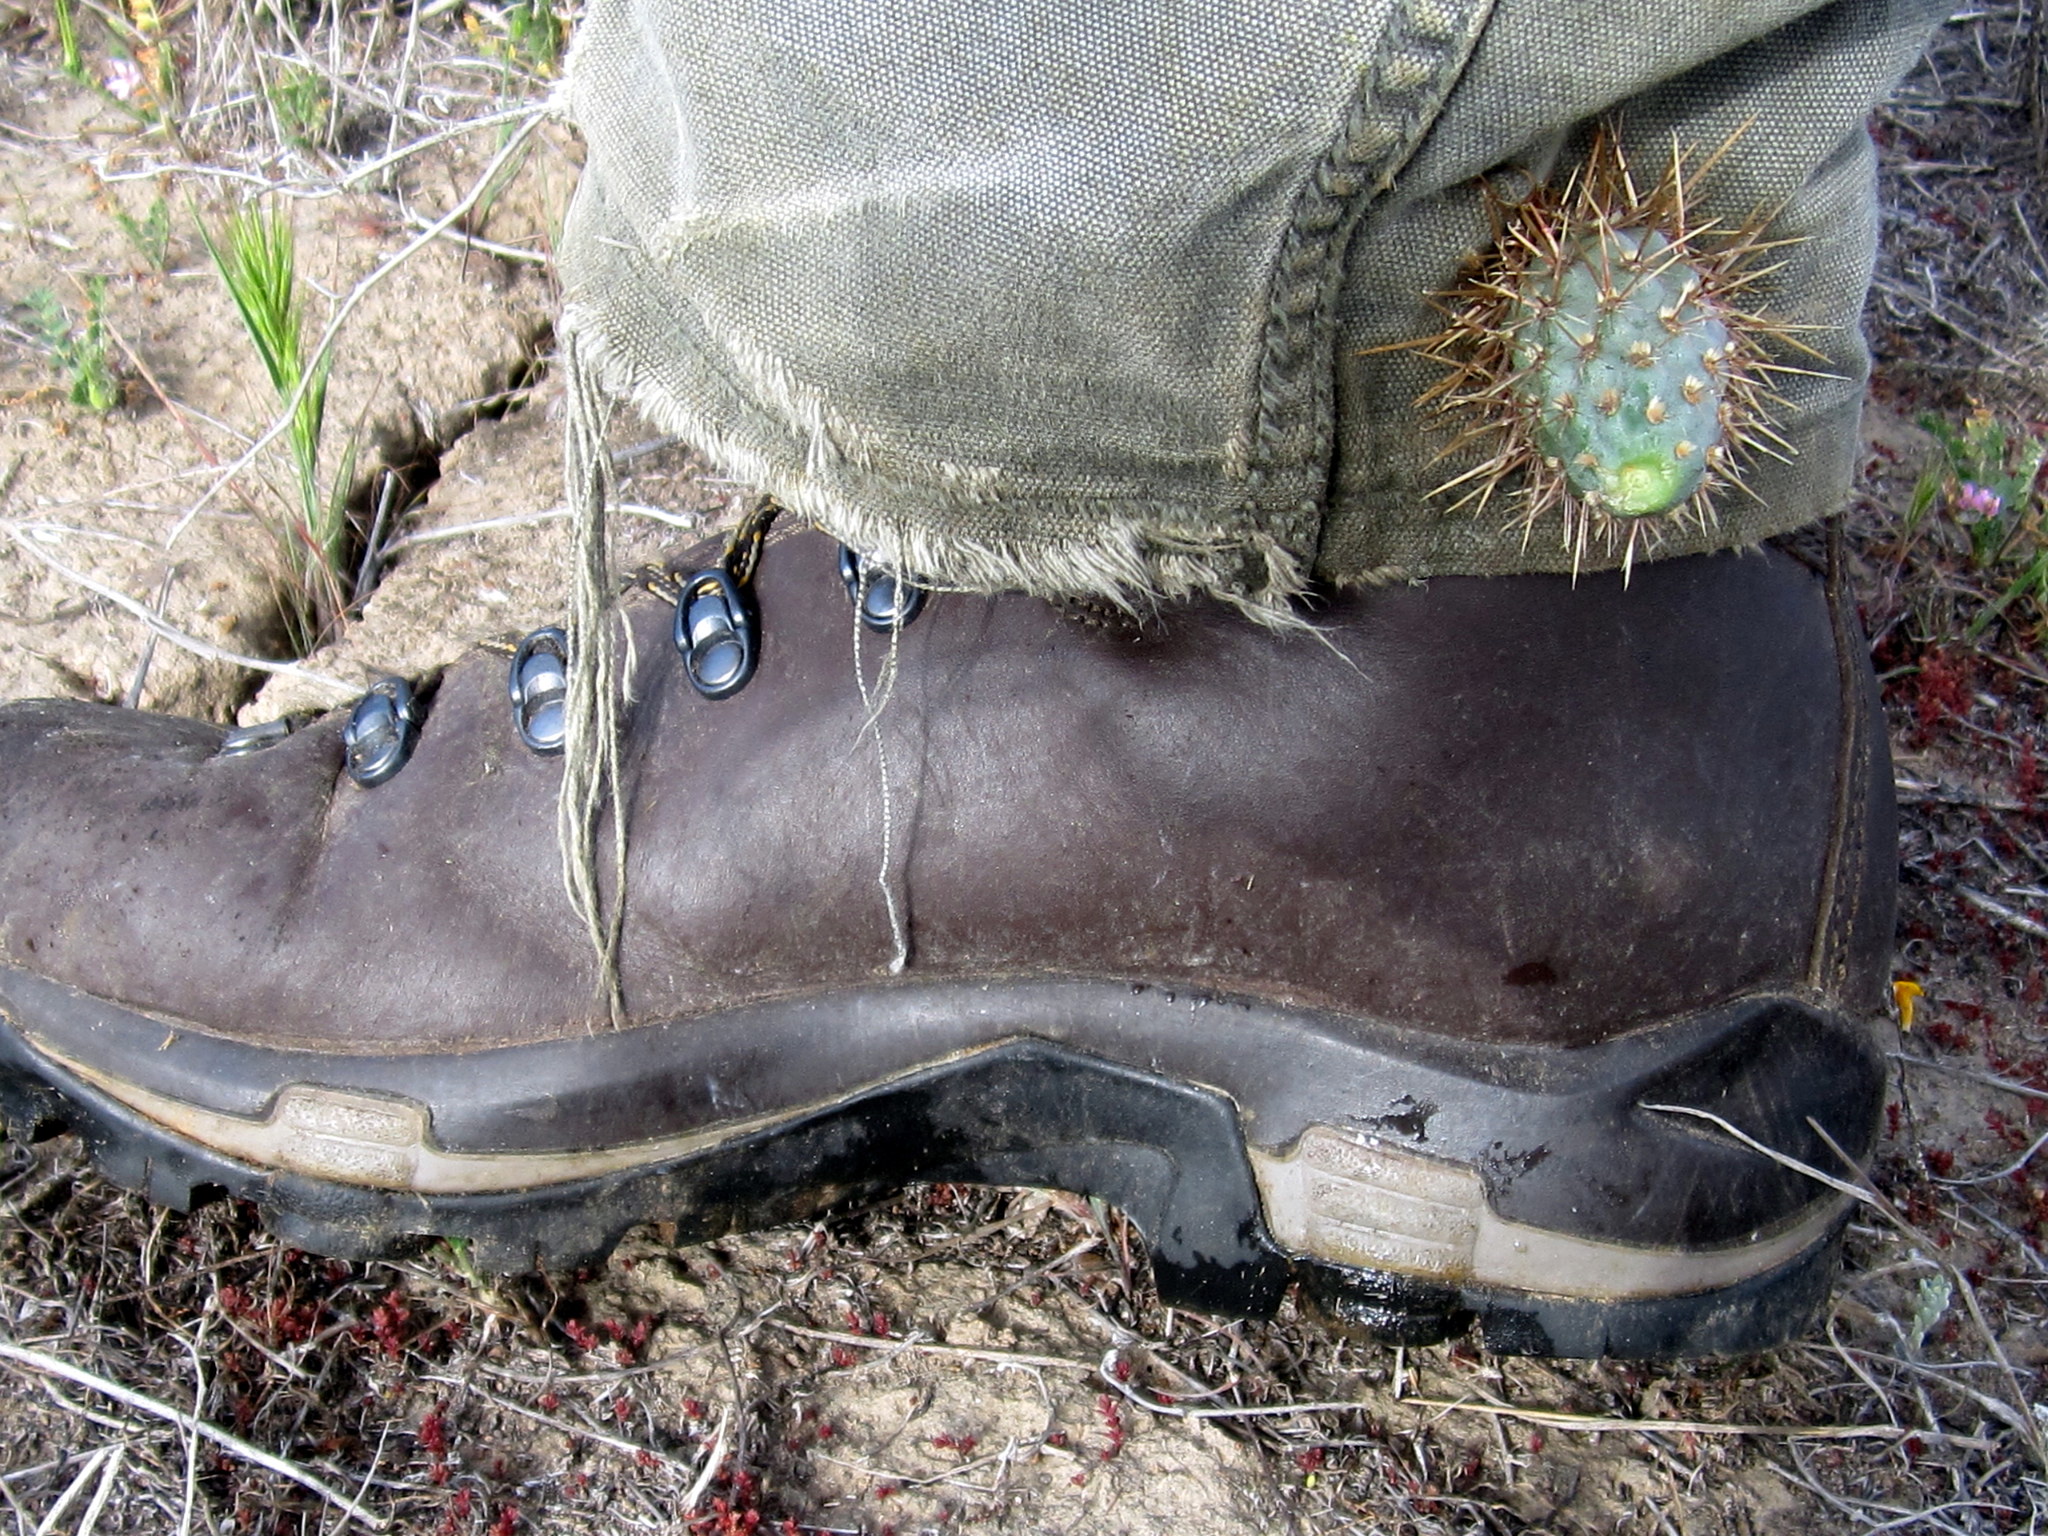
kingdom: Plantae
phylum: Tracheophyta
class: Magnoliopsida
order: Caryophyllales
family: Cactaceae
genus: Cylindropuntia
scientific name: Cylindropuntia prolifera
